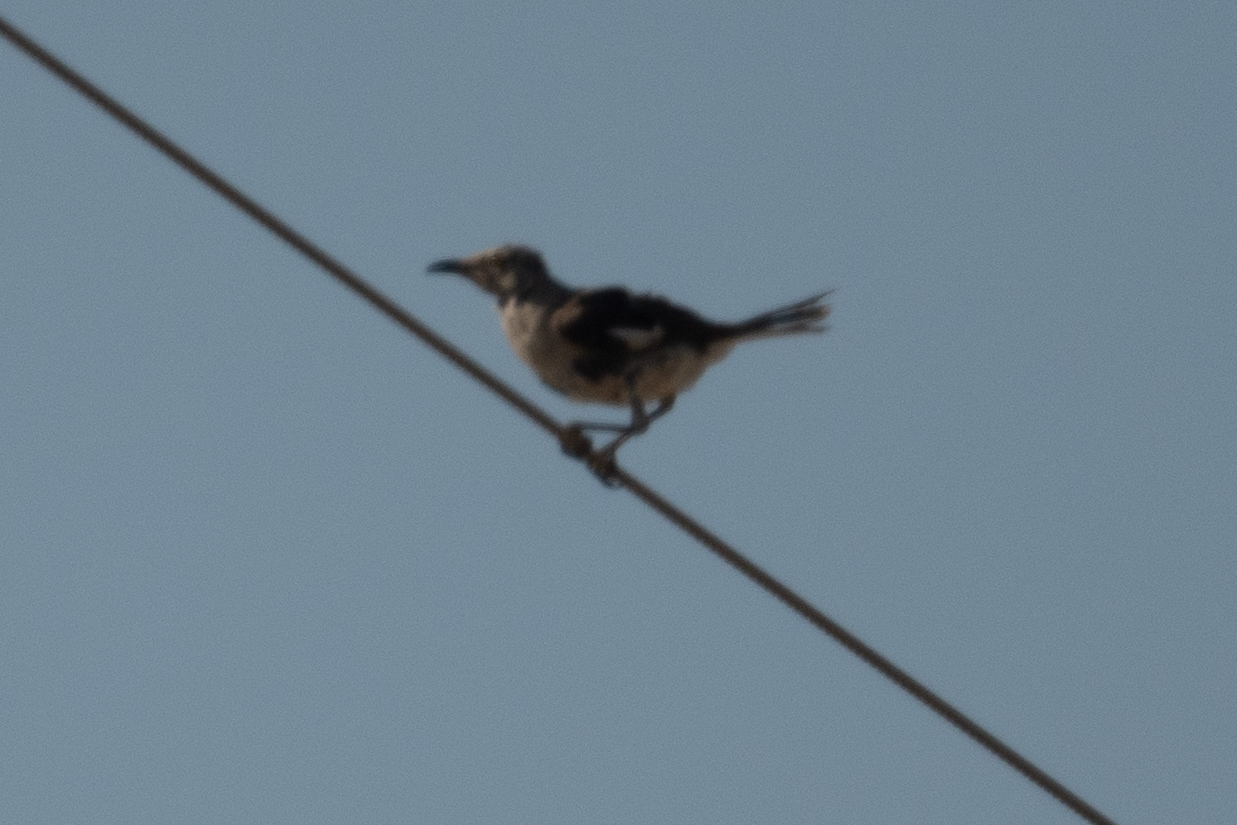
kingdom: Animalia
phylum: Chordata
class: Aves
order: Passeriformes
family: Mimidae
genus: Mimus
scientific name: Mimus polyglottos
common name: Northern mockingbird
